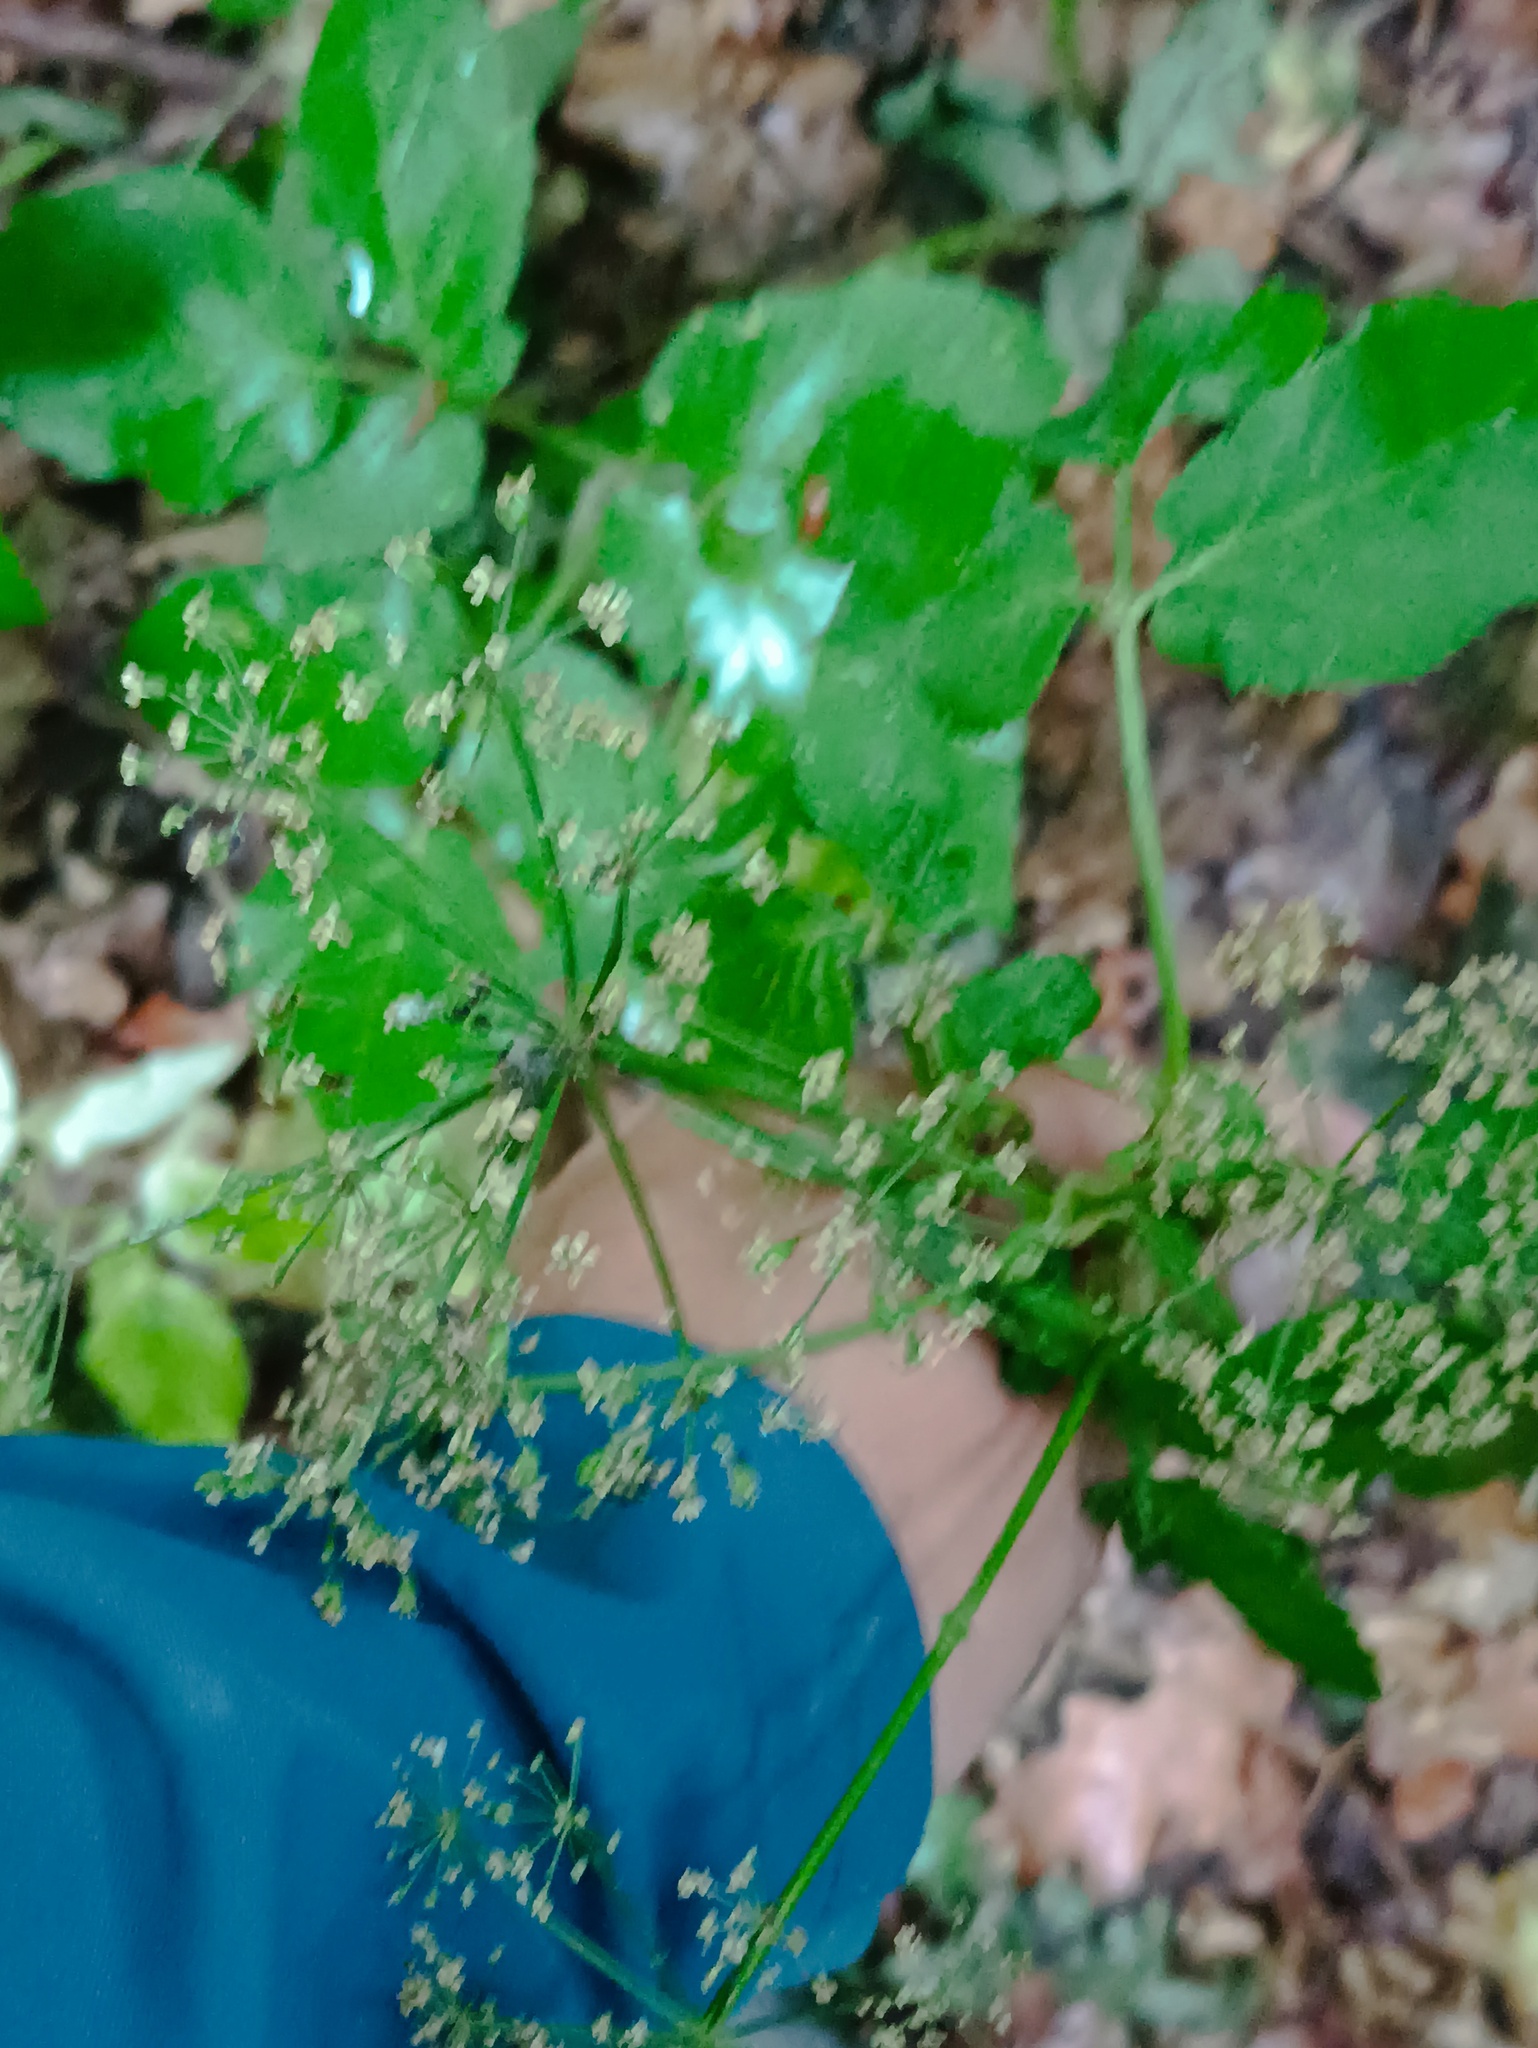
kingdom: Plantae
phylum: Tracheophyta
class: Magnoliopsida
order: Apiales
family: Apiaceae
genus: Aegopodium
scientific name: Aegopodium podagraria
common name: Ground-elder
